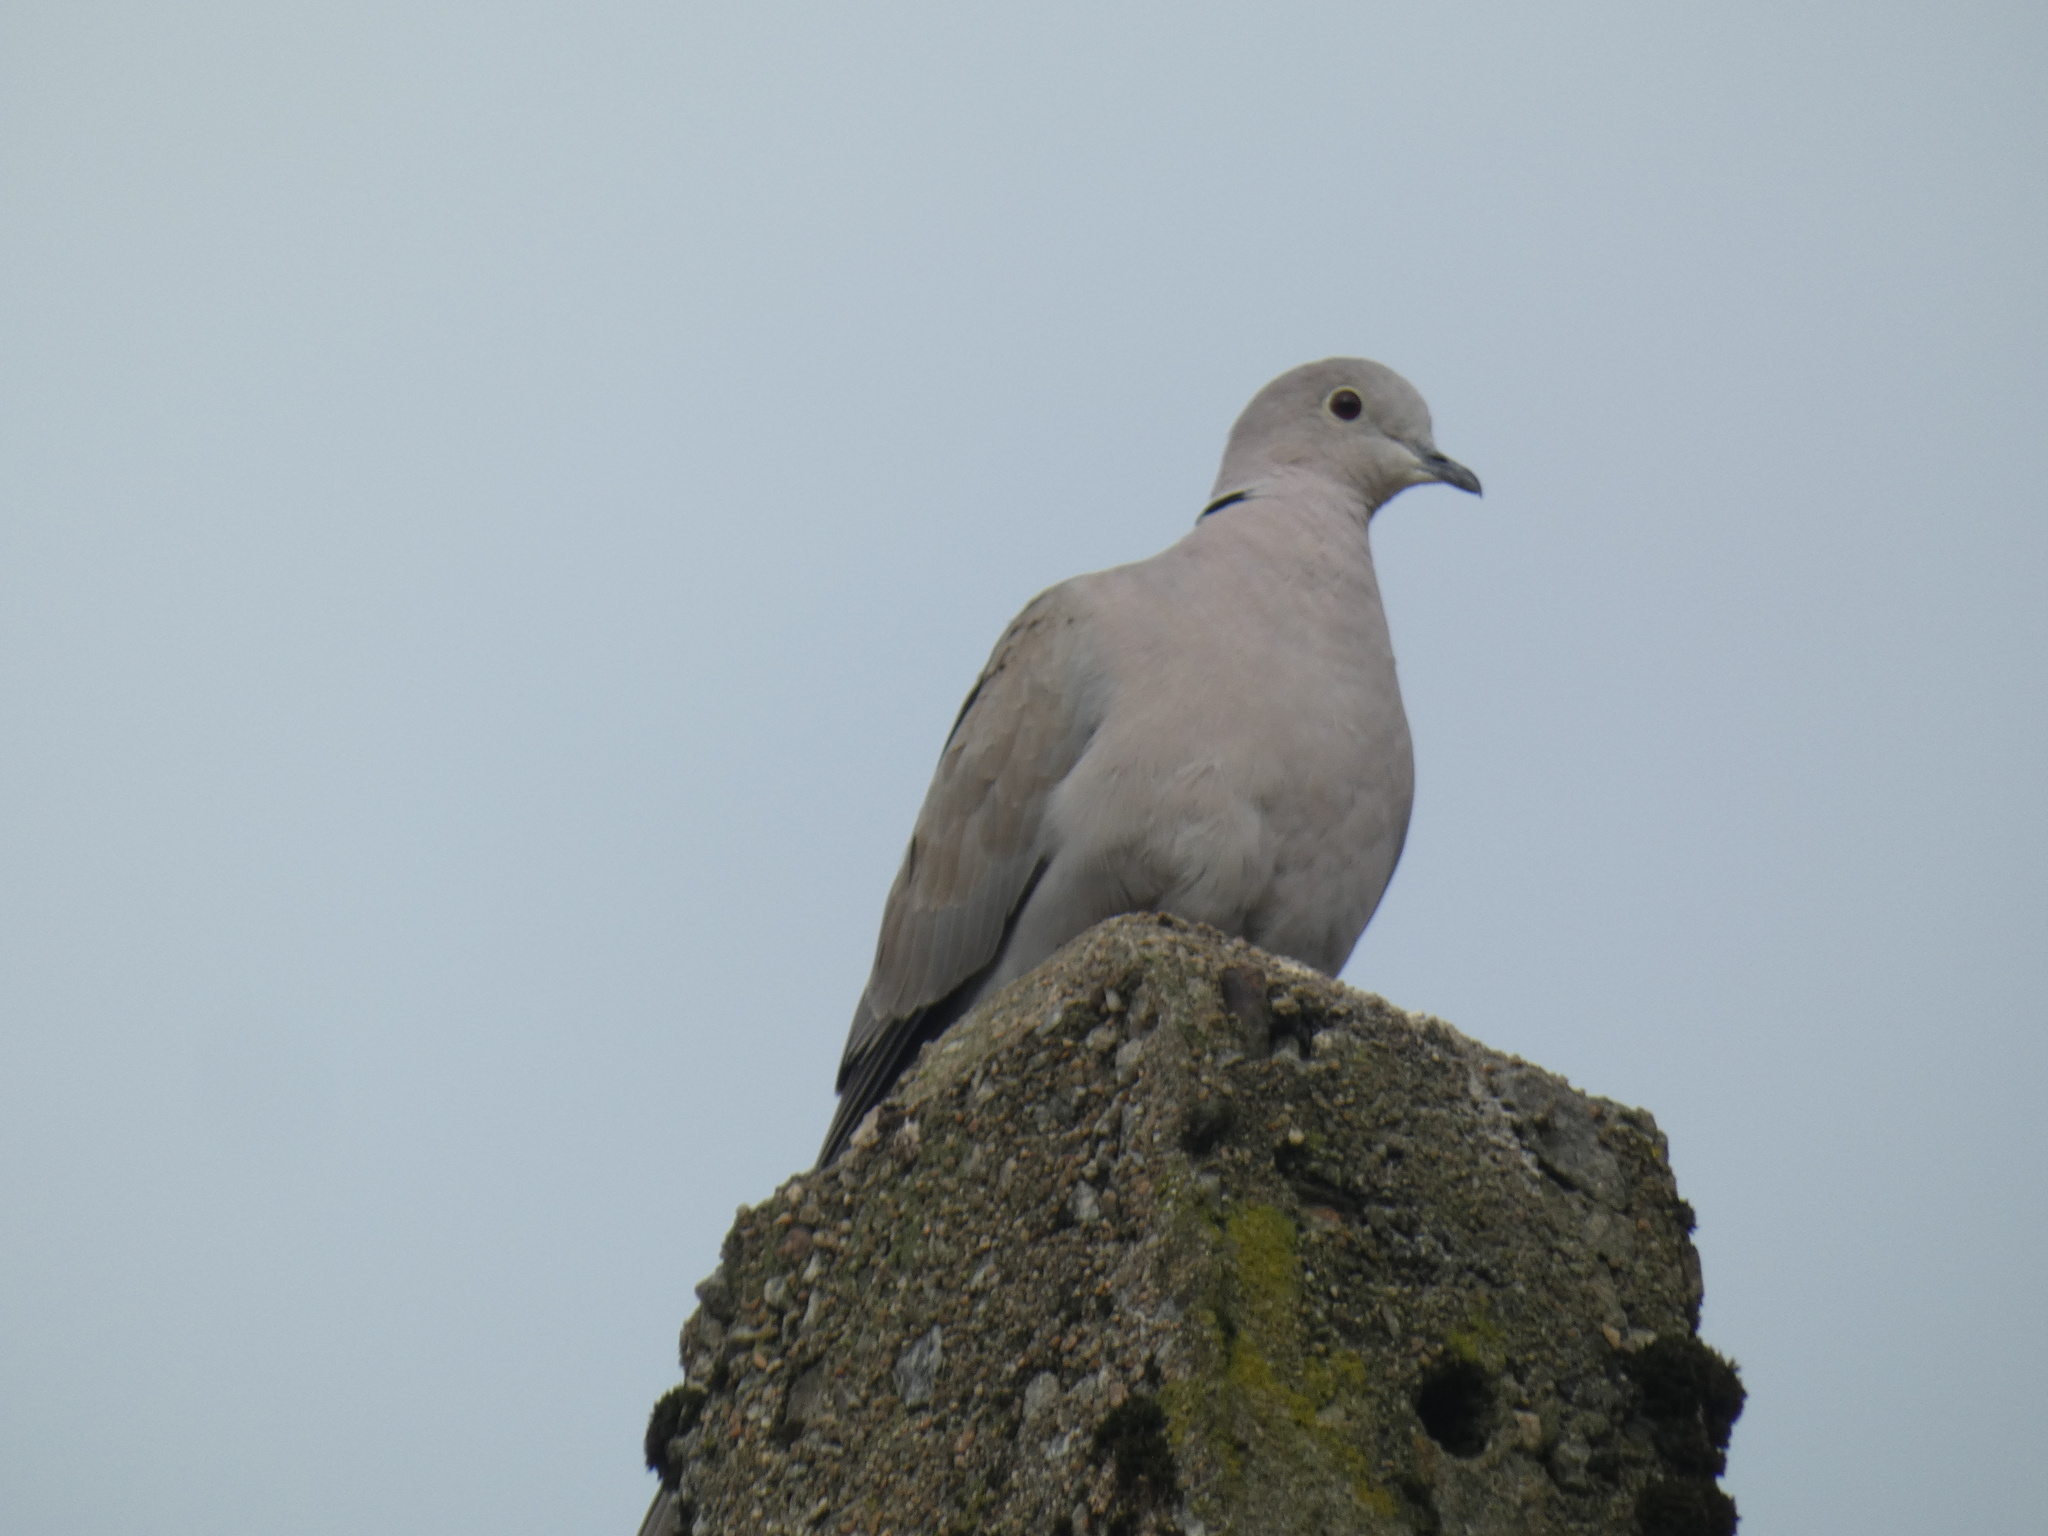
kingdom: Animalia
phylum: Chordata
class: Aves
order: Columbiformes
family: Columbidae
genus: Streptopelia
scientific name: Streptopelia decaocto
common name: Eurasian collared dove
